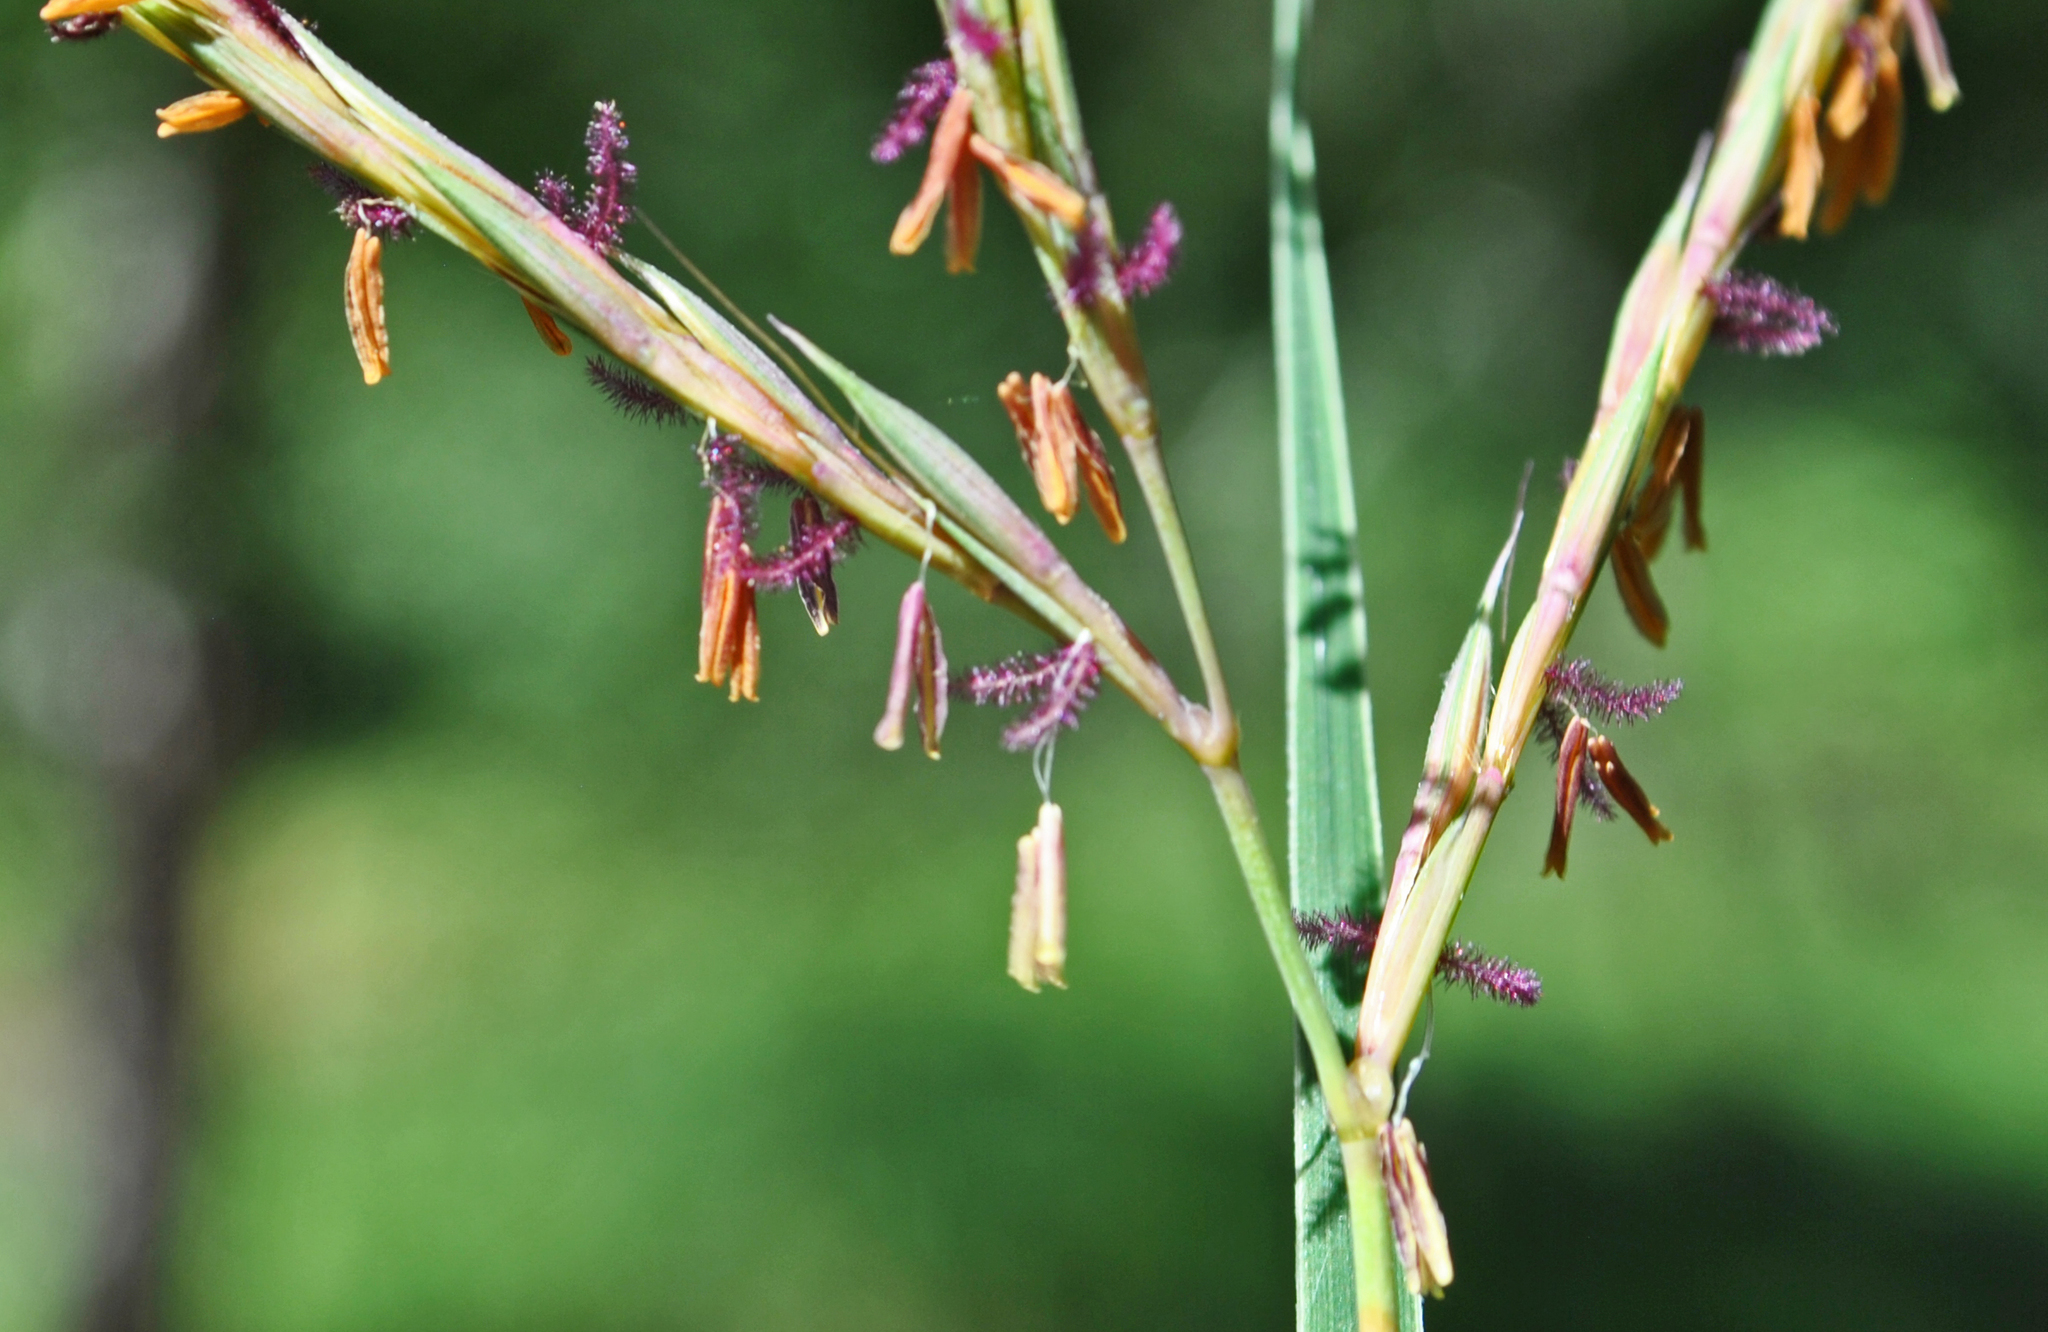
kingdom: Plantae
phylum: Tracheophyta
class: Liliopsida
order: Poales
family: Poaceae
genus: Andropogon
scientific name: Andropogon gerardi
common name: Big bluestem
